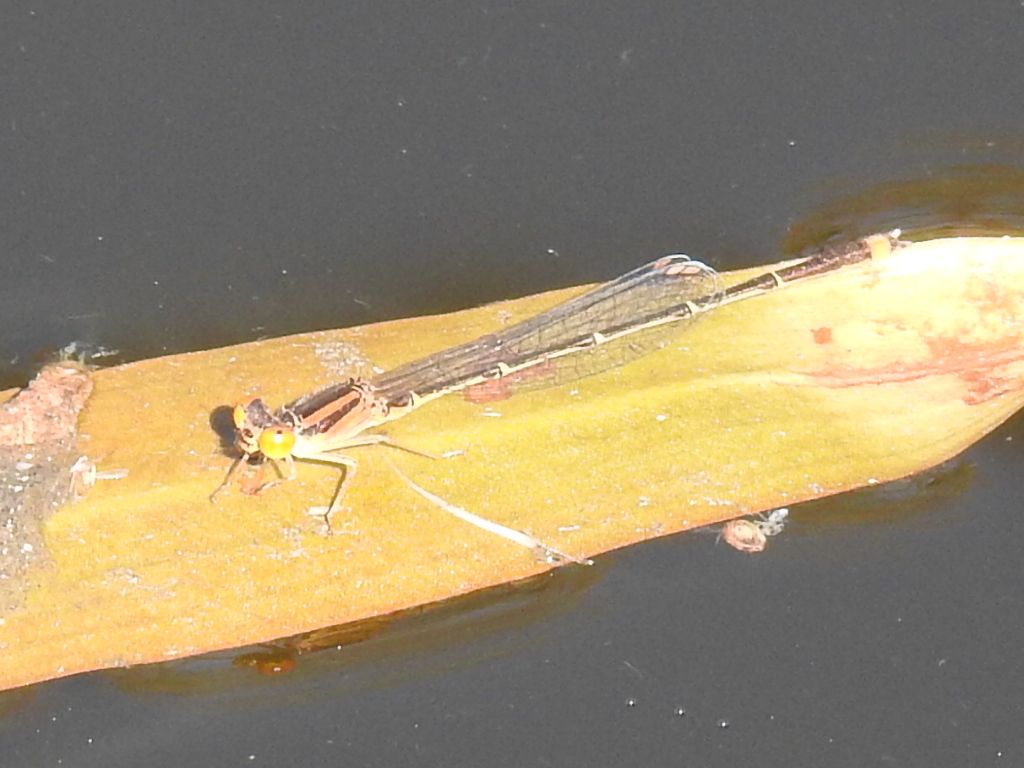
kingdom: Animalia
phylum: Arthropoda
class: Insecta
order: Odonata
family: Coenagrionidae
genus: Enallagma
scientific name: Enallagma signatum
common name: Orange bluet
